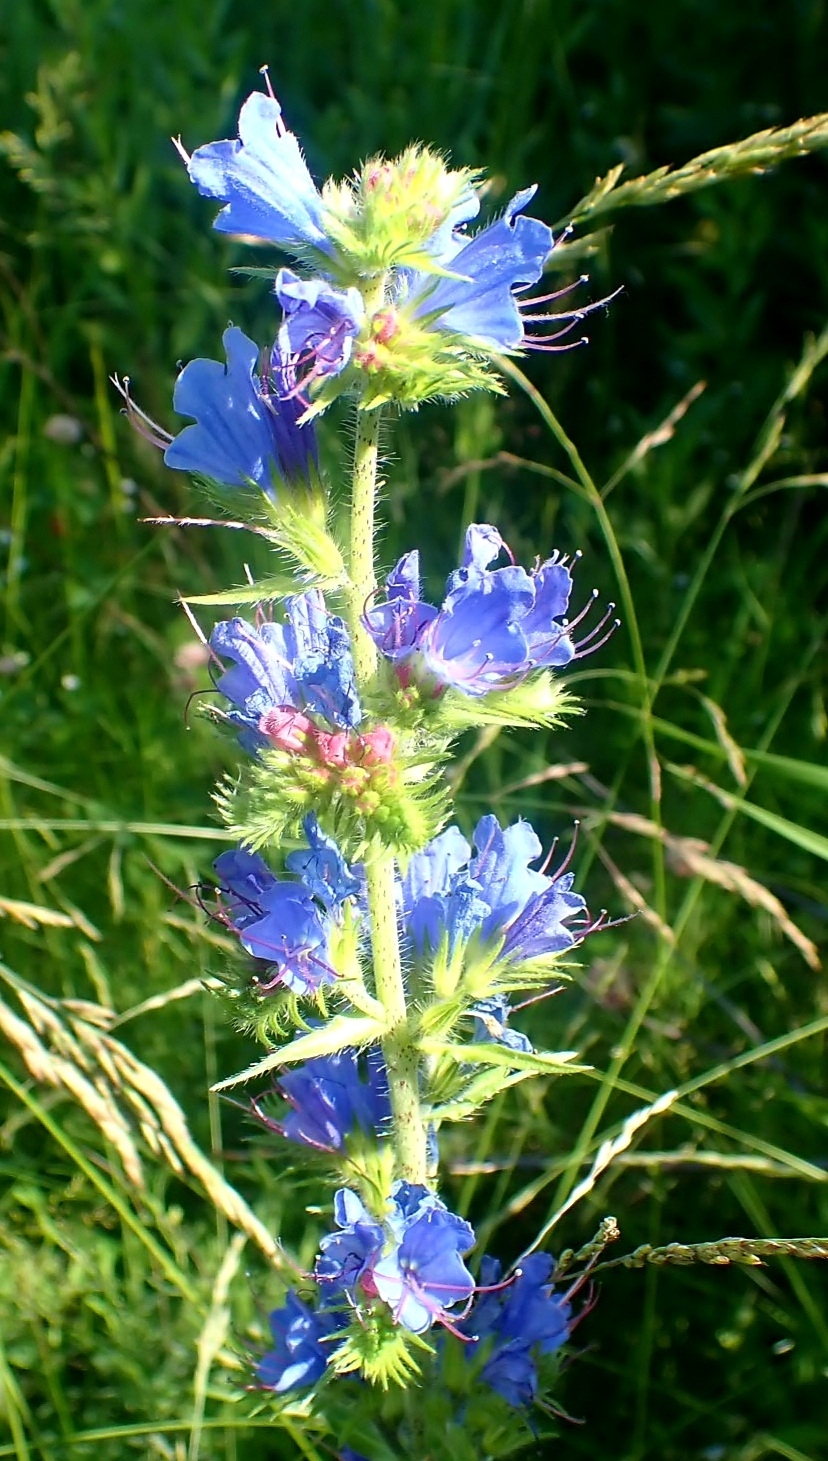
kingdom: Plantae
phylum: Tracheophyta
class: Magnoliopsida
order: Boraginales
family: Boraginaceae
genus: Echium
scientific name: Echium vulgare
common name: Common viper's bugloss
